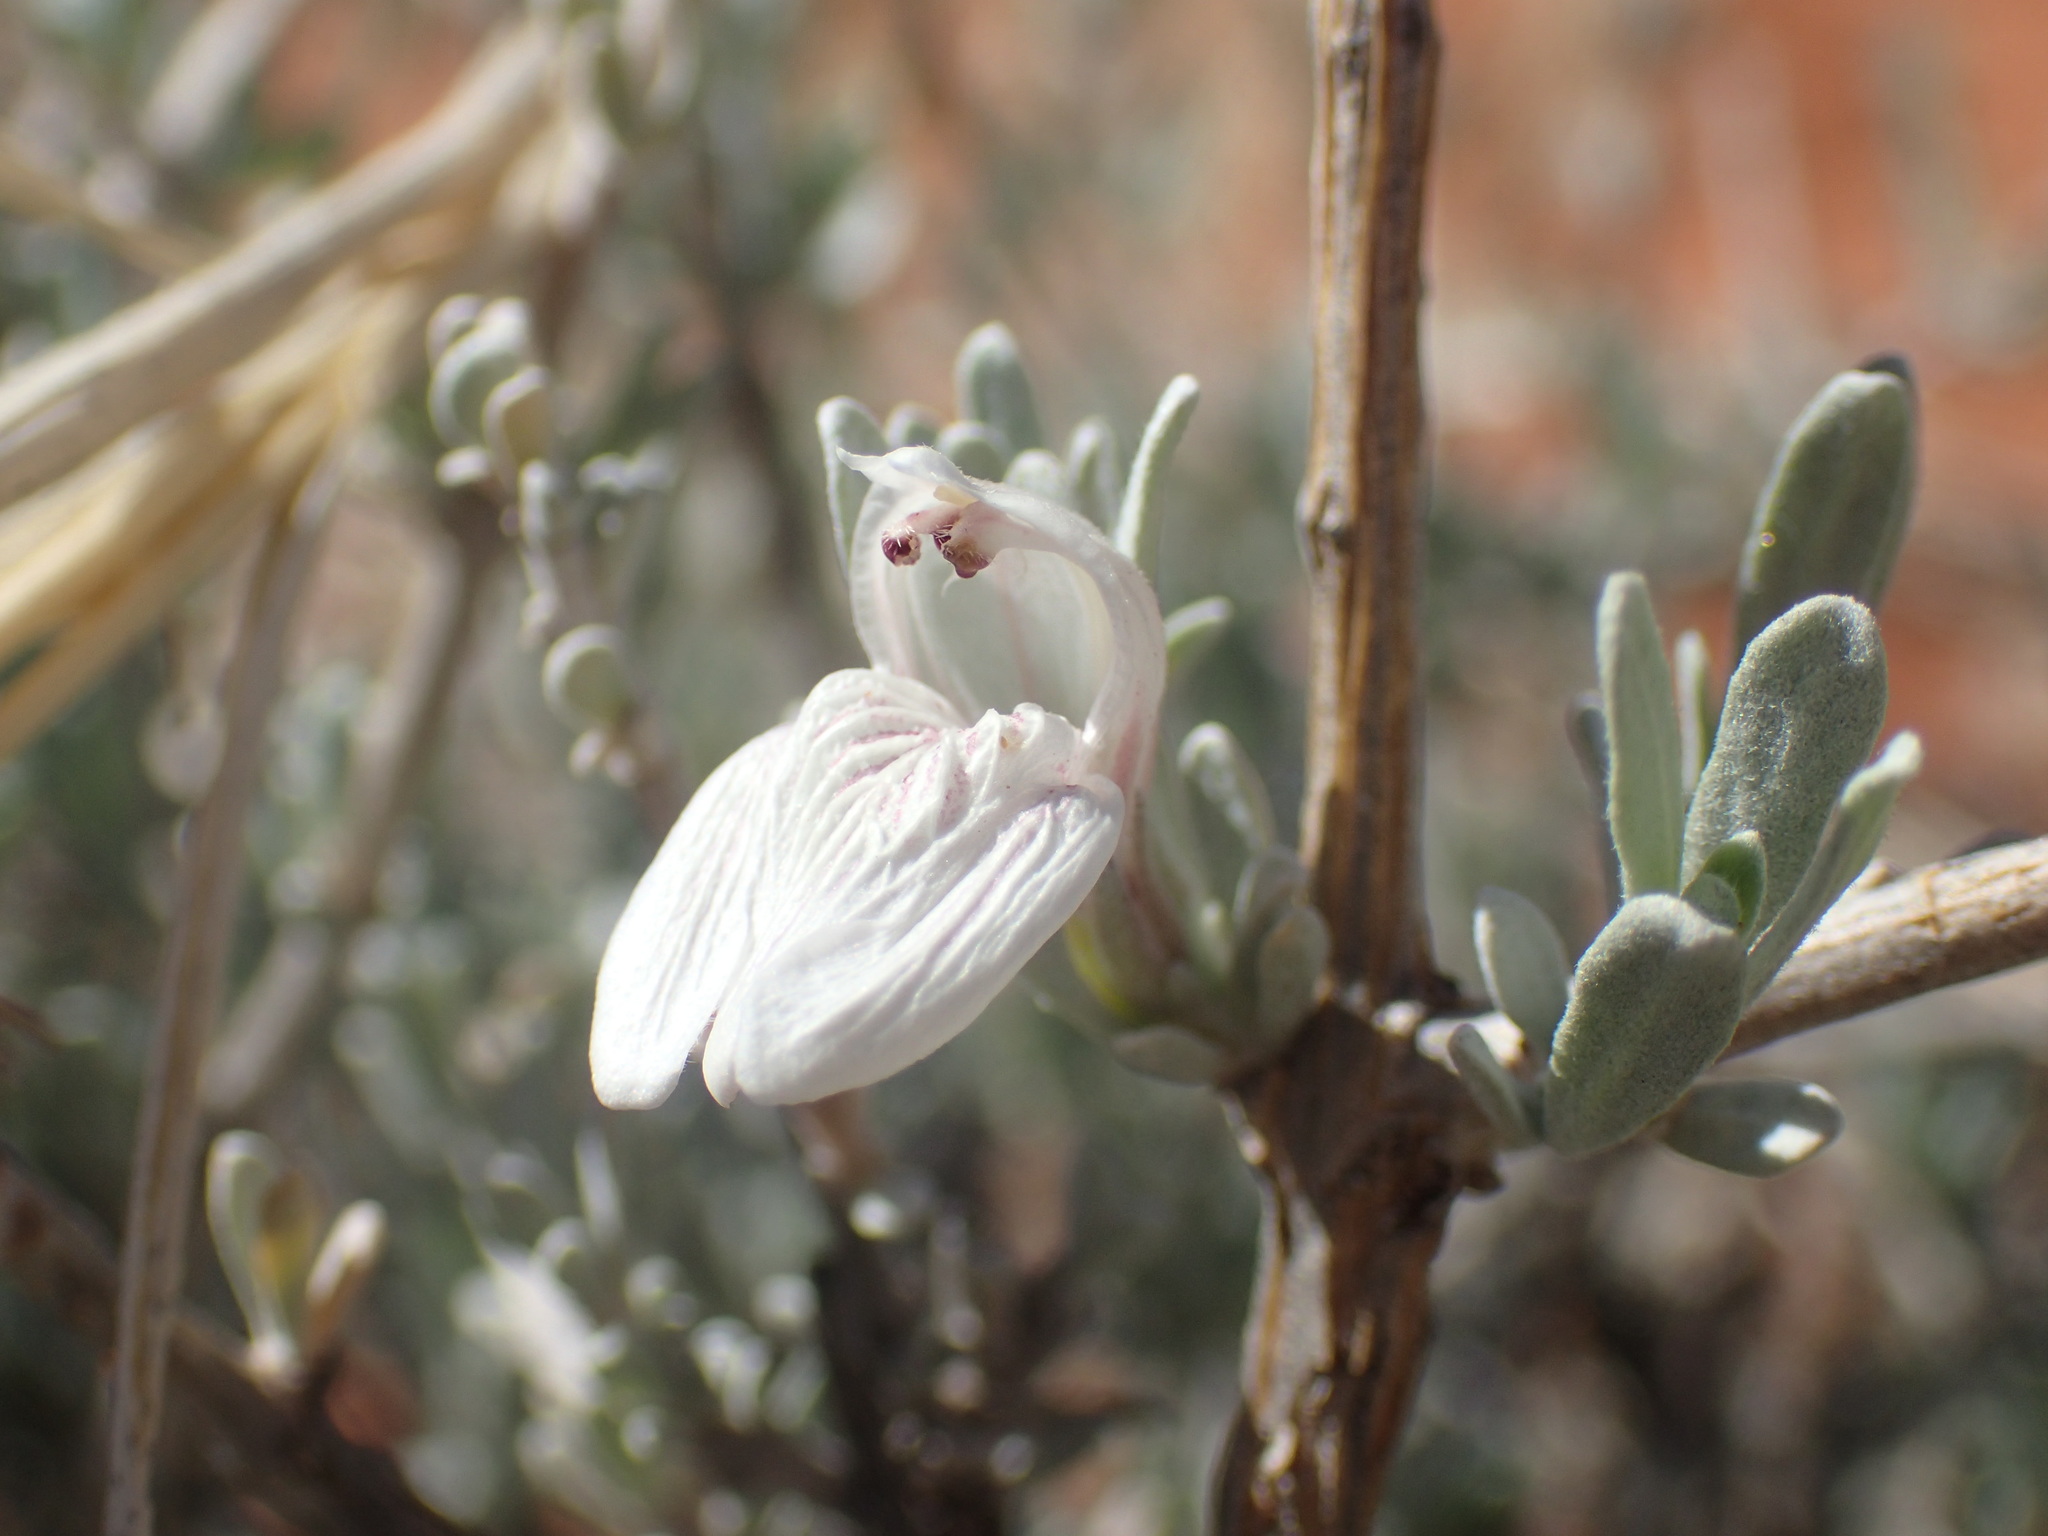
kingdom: Plantae
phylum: Tracheophyta
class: Magnoliopsida
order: Lamiales
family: Acanthaceae
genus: Pogonospermum
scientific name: Pogonospermum
